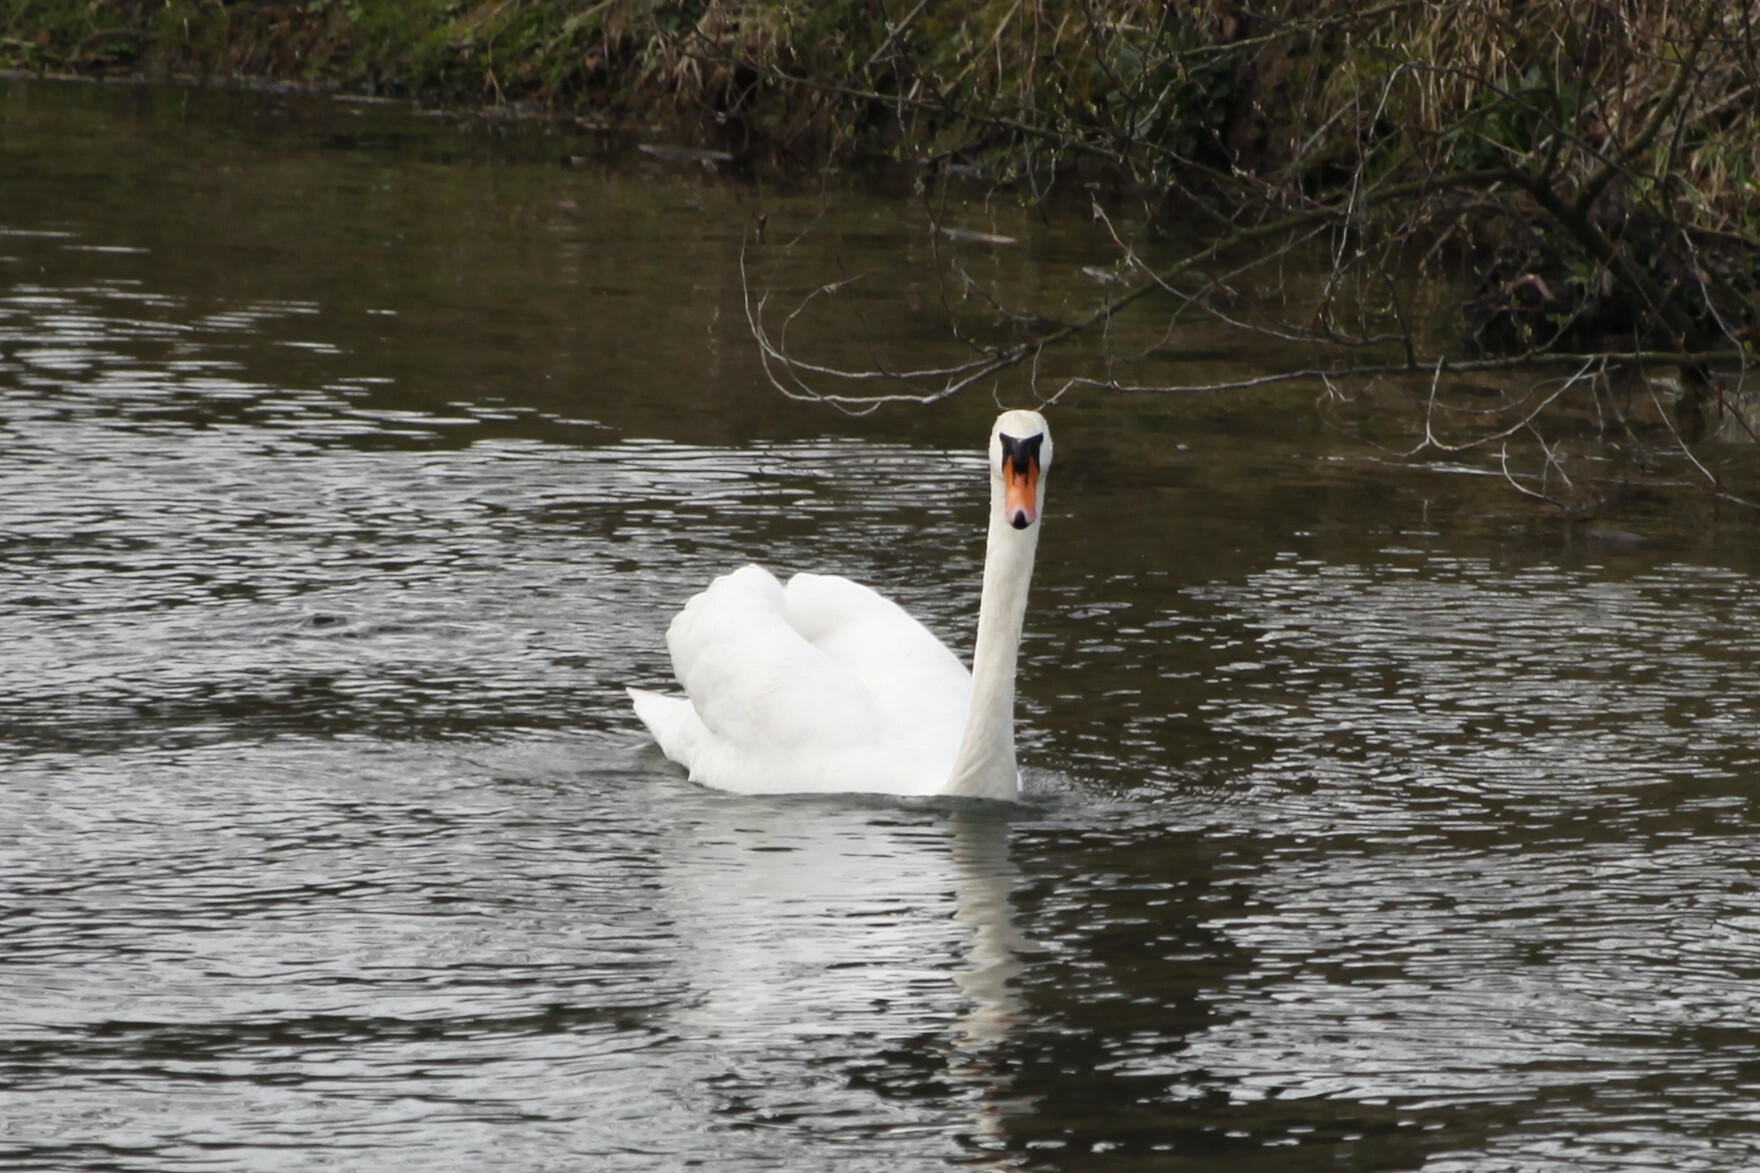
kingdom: Animalia
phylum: Chordata
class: Aves
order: Anseriformes
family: Anatidae
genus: Cygnus
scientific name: Cygnus olor
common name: Mute swan
